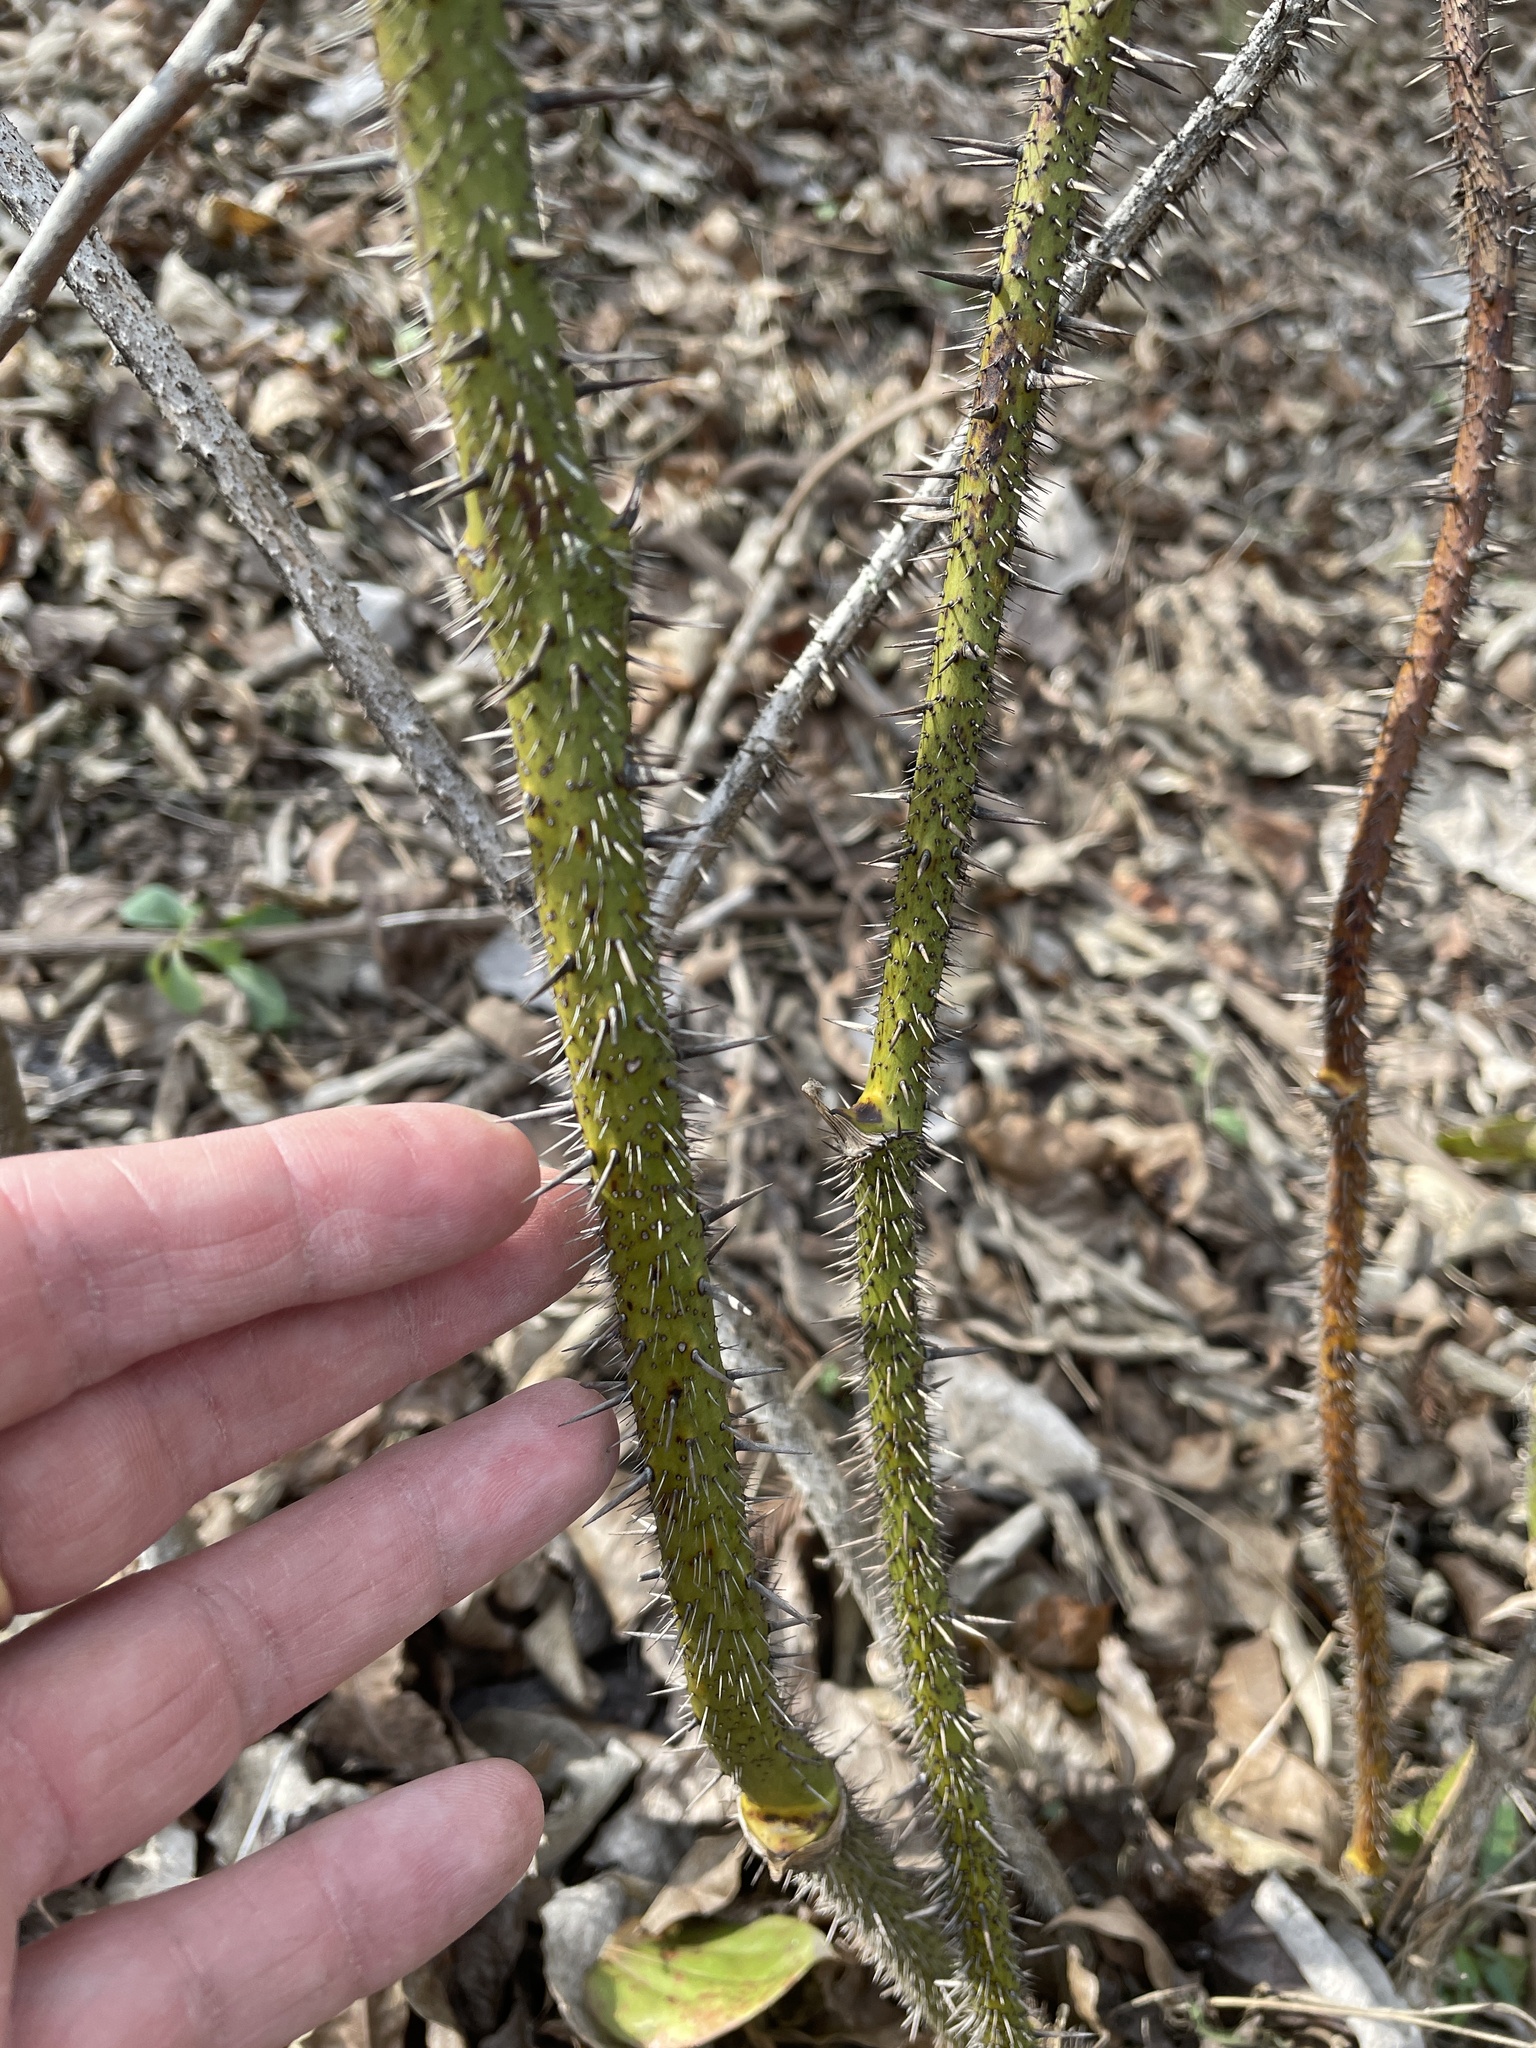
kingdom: Plantae
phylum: Tracheophyta
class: Liliopsida
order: Liliales
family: Smilacaceae
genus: Smilax
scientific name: Smilax tamnoides
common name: Hellfetter
